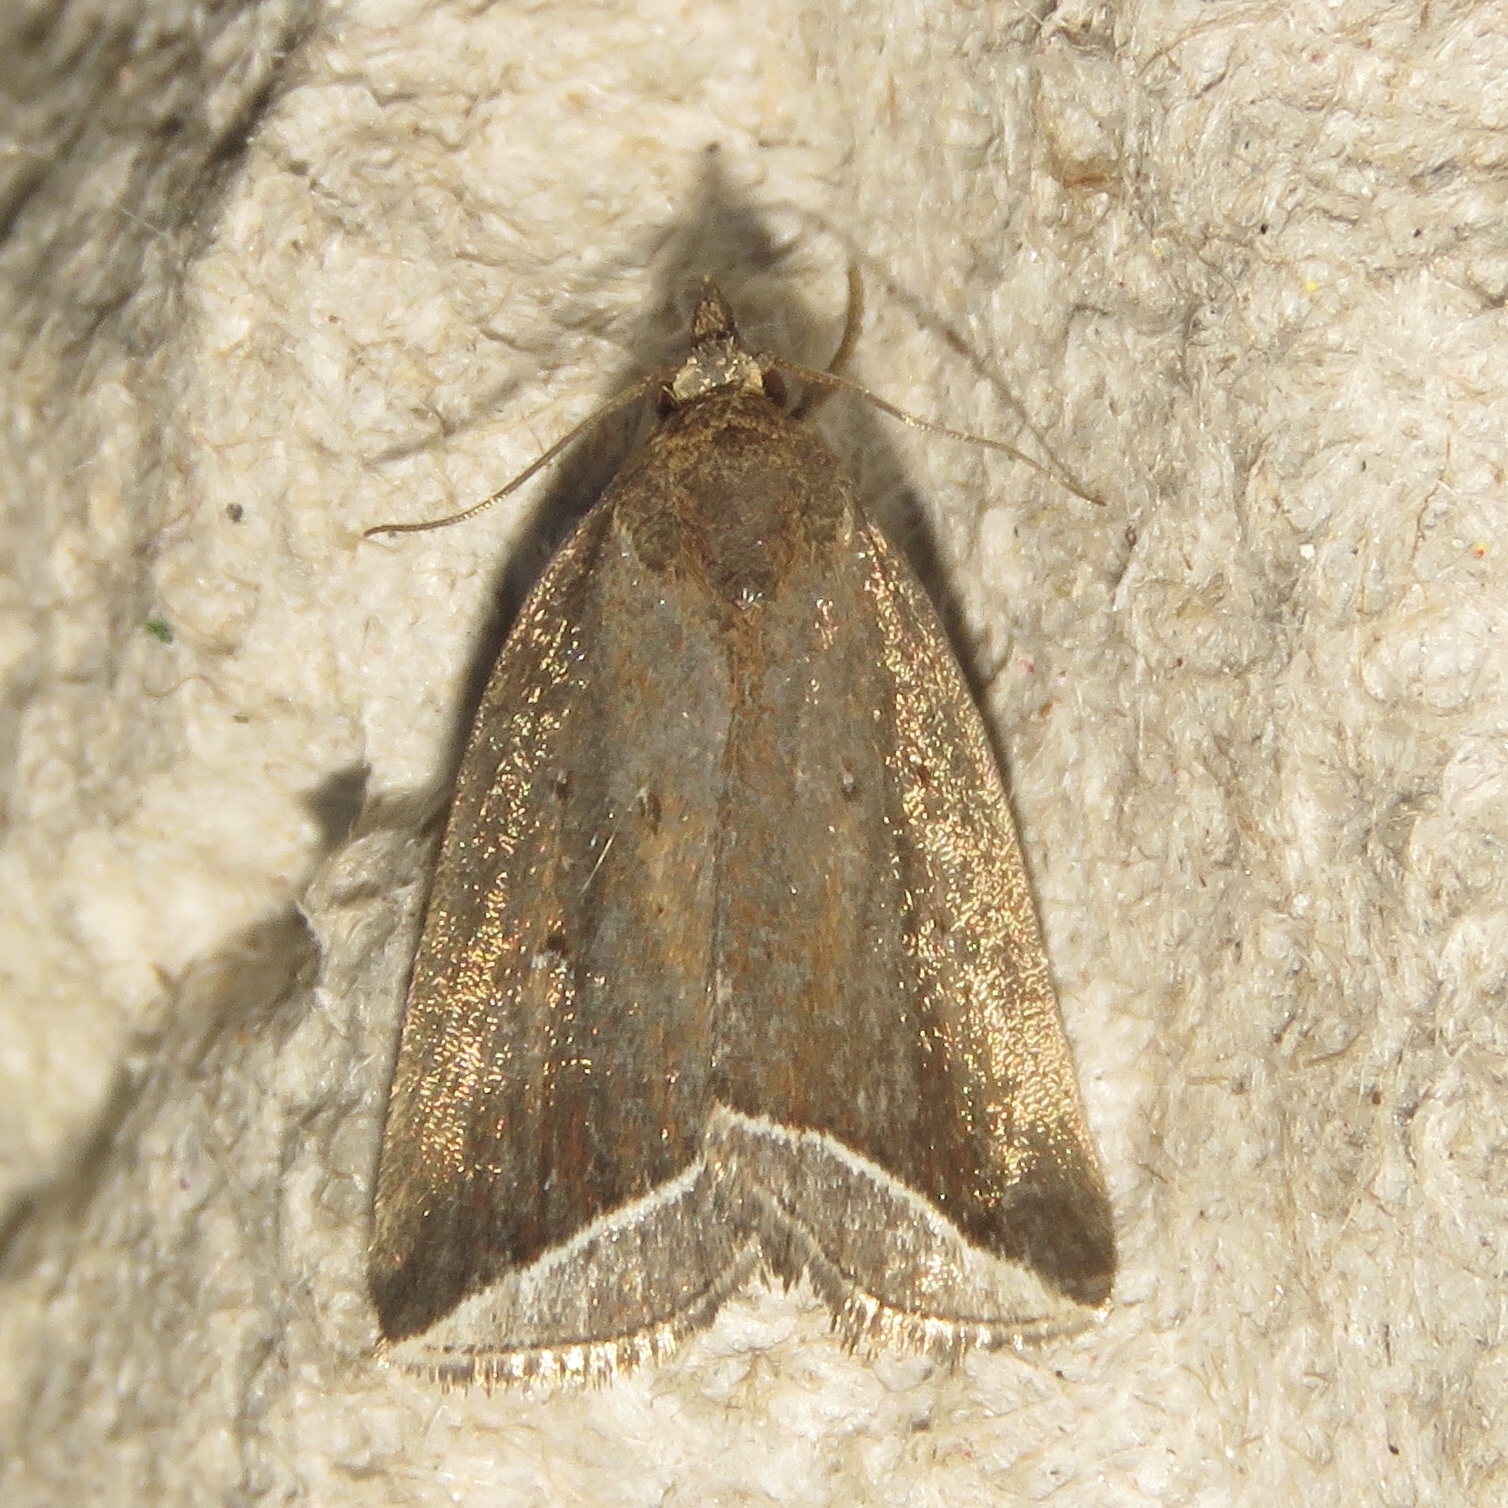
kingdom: Animalia
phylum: Arthropoda
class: Insecta
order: Lepidoptera
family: Erebidae
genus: Capis
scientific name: Capis curvata
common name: Curved halter moth
